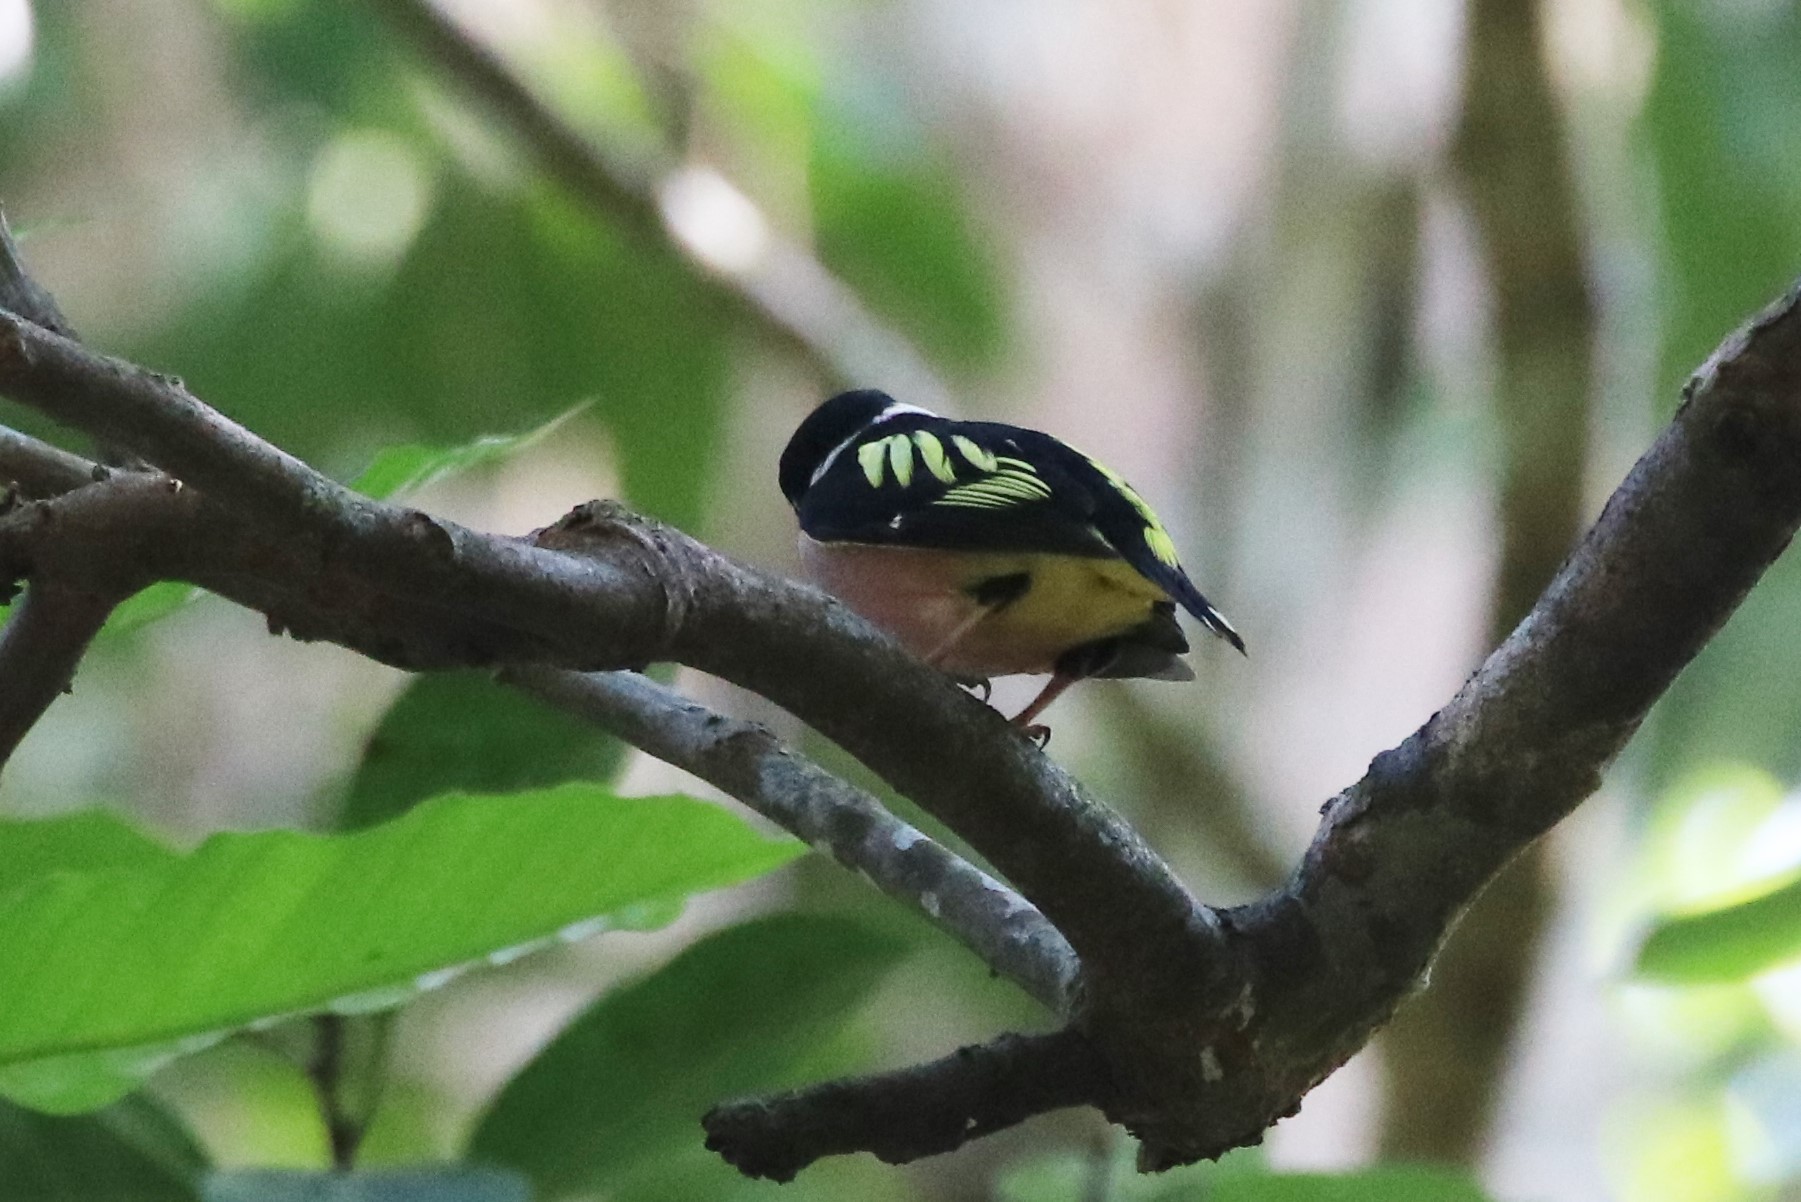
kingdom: Animalia
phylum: Chordata
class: Aves
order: Passeriformes
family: Eurylaimidae
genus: Eurylaimus
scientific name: Eurylaimus ochromalus
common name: Black-and-yellow broadbill
